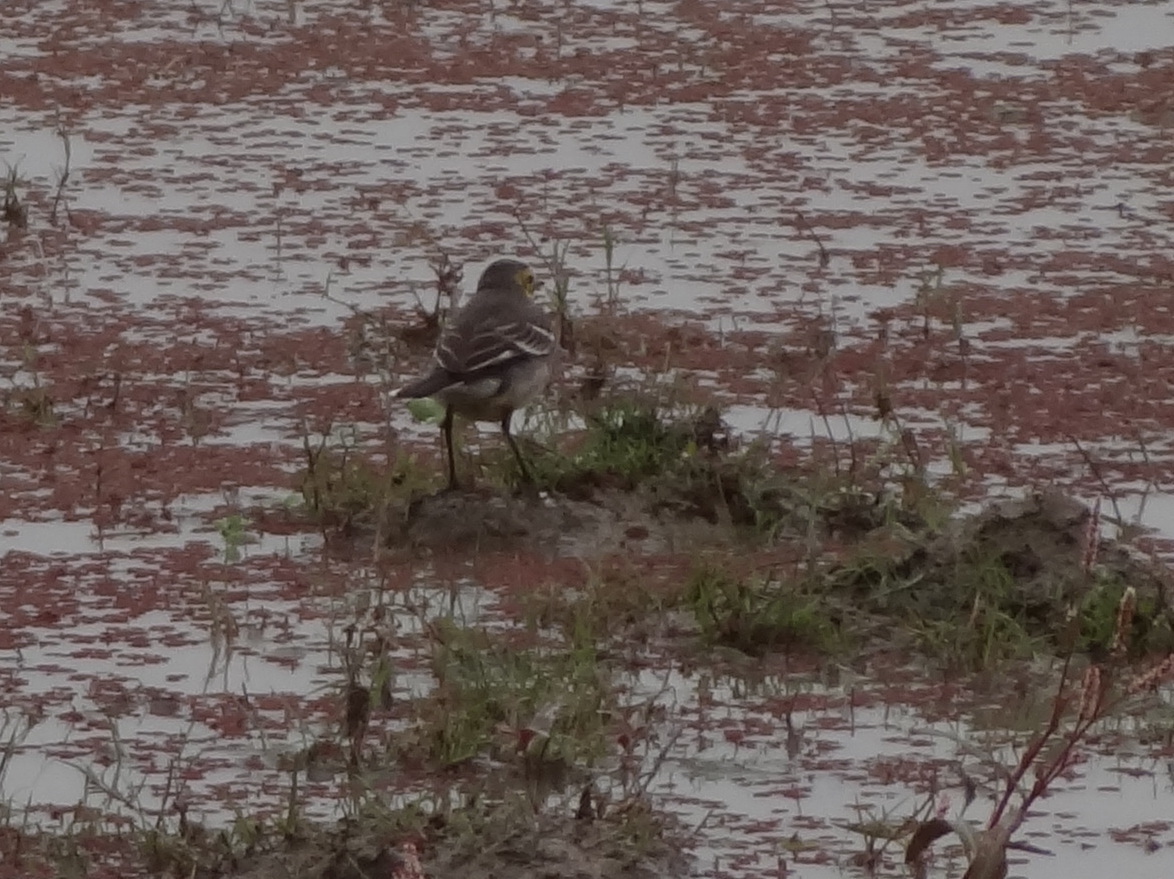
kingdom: Animalia
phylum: Chordata
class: Aves
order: Passeriformes
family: Motacillidae
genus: Motacilla
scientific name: Motacilla citreola
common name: Citrine wagtail
